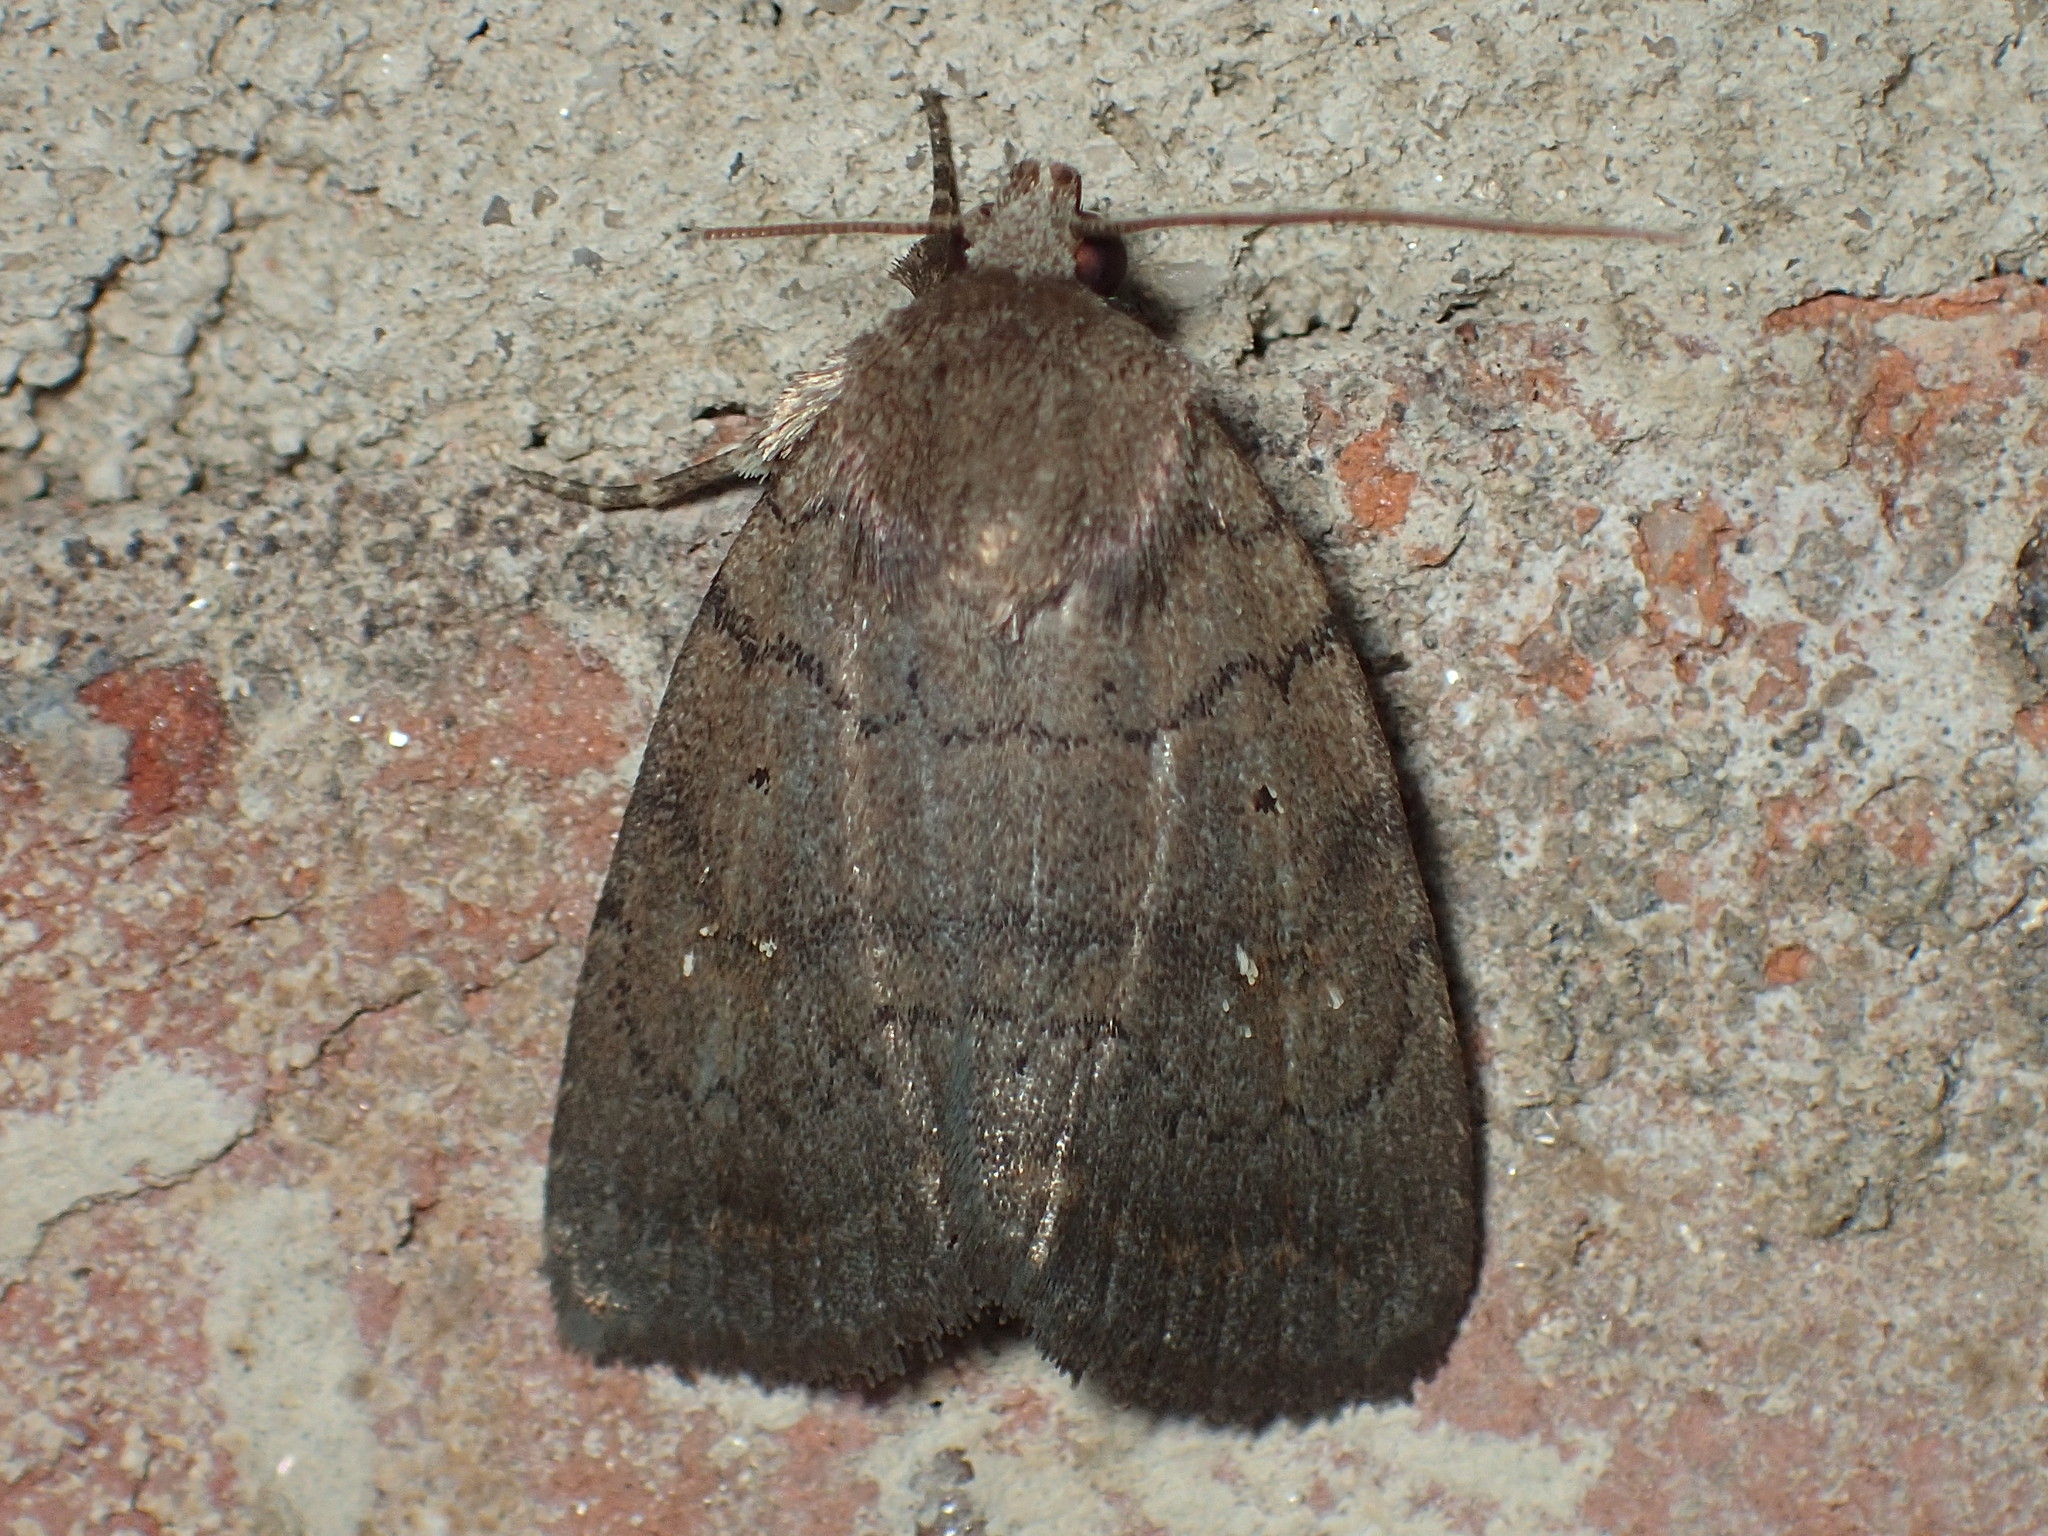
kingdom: Animalia
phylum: Arthropoda
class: Insecta
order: Lepidoptera
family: Noctuidae
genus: Athetis
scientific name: Athetis tarda
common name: Slowpoke moth
